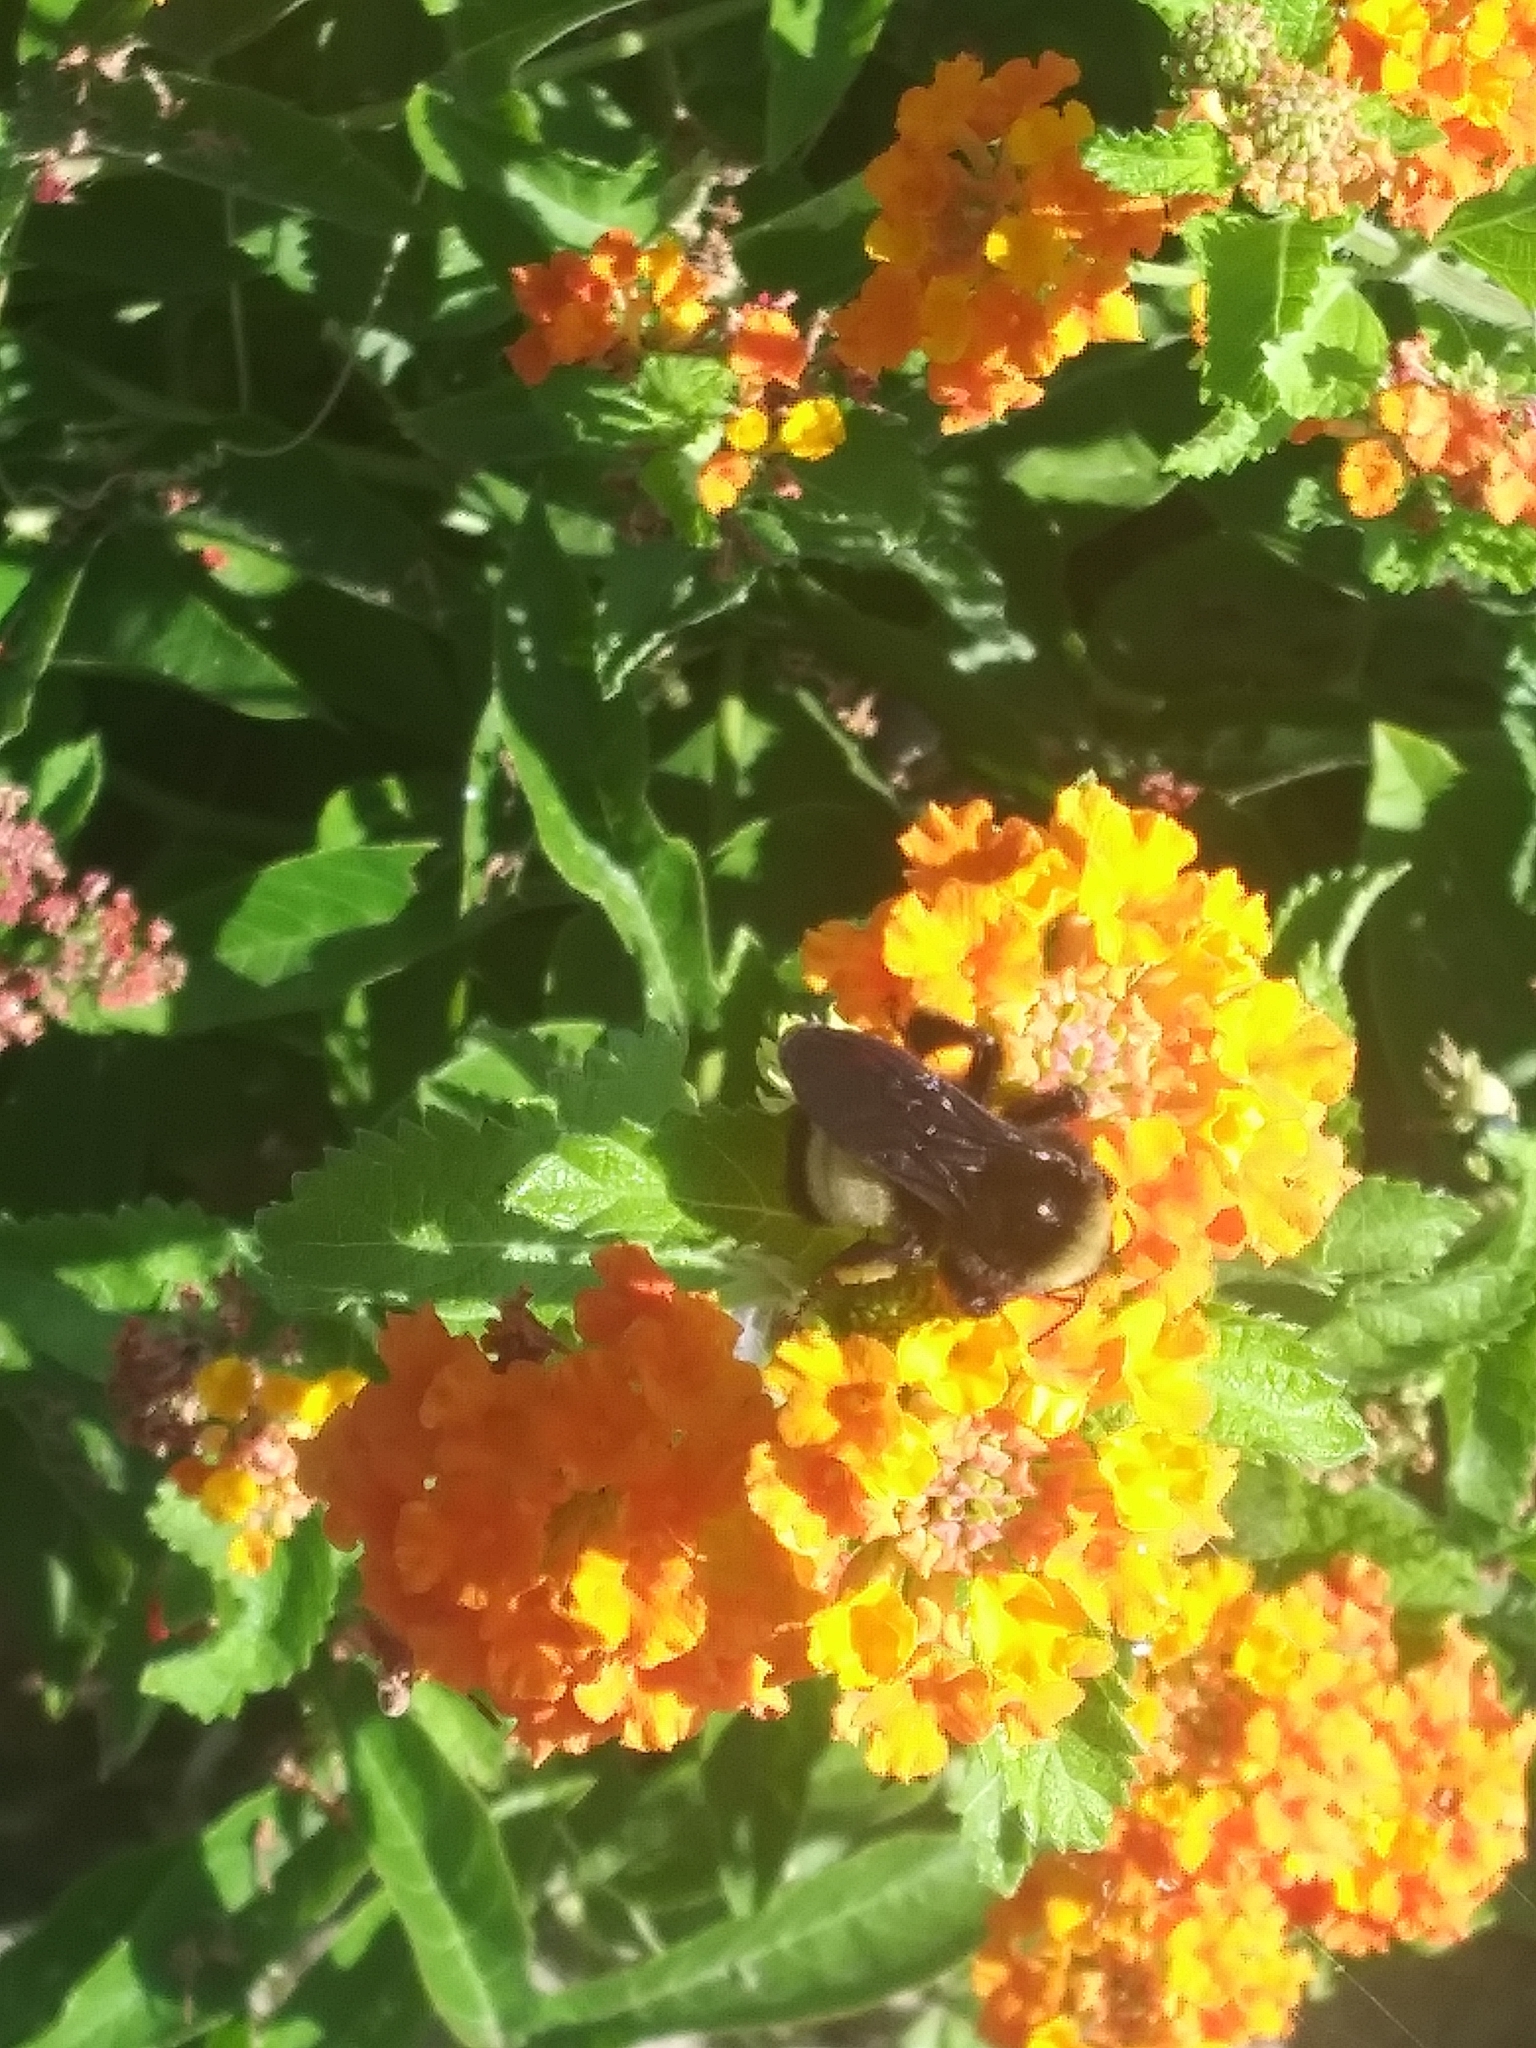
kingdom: Animalia
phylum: Arthropoda
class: Insecta
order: Hymenoptera
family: Apidae
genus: Bombus
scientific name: Bombus pensylvanicus
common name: Bumble bee
